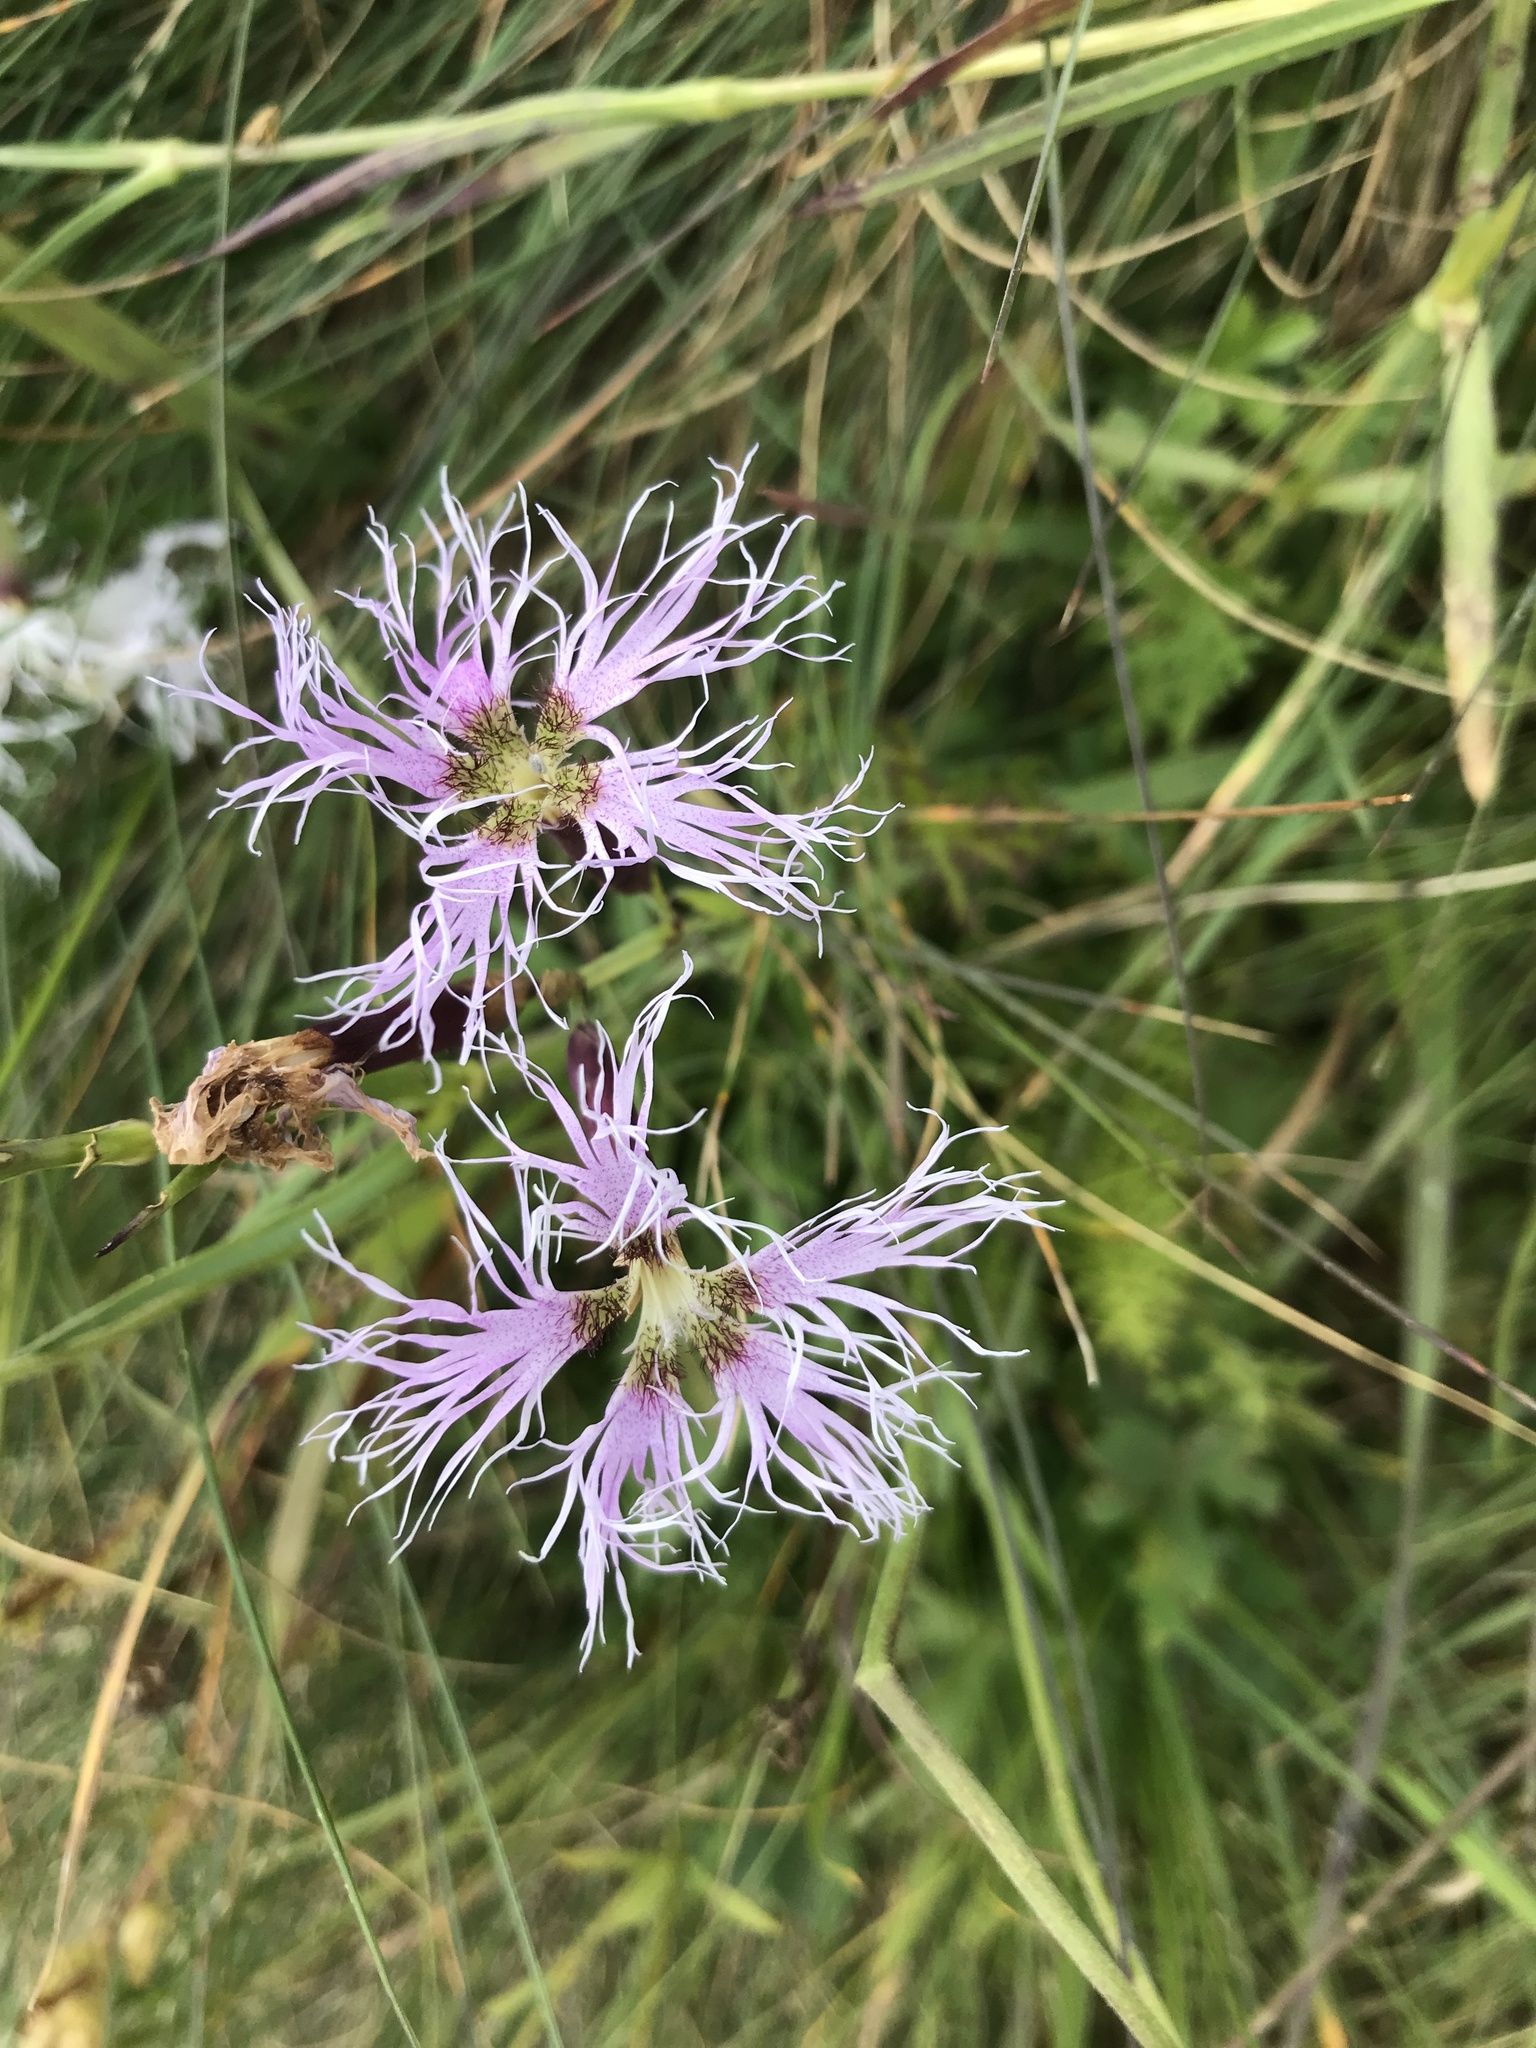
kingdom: Plantae
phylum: Tracheophyta
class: Magnoliopsida
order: Caryophyllales
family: Caryophyllaceae
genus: Dianthus
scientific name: Dianthus superbus
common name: Fringed pink
